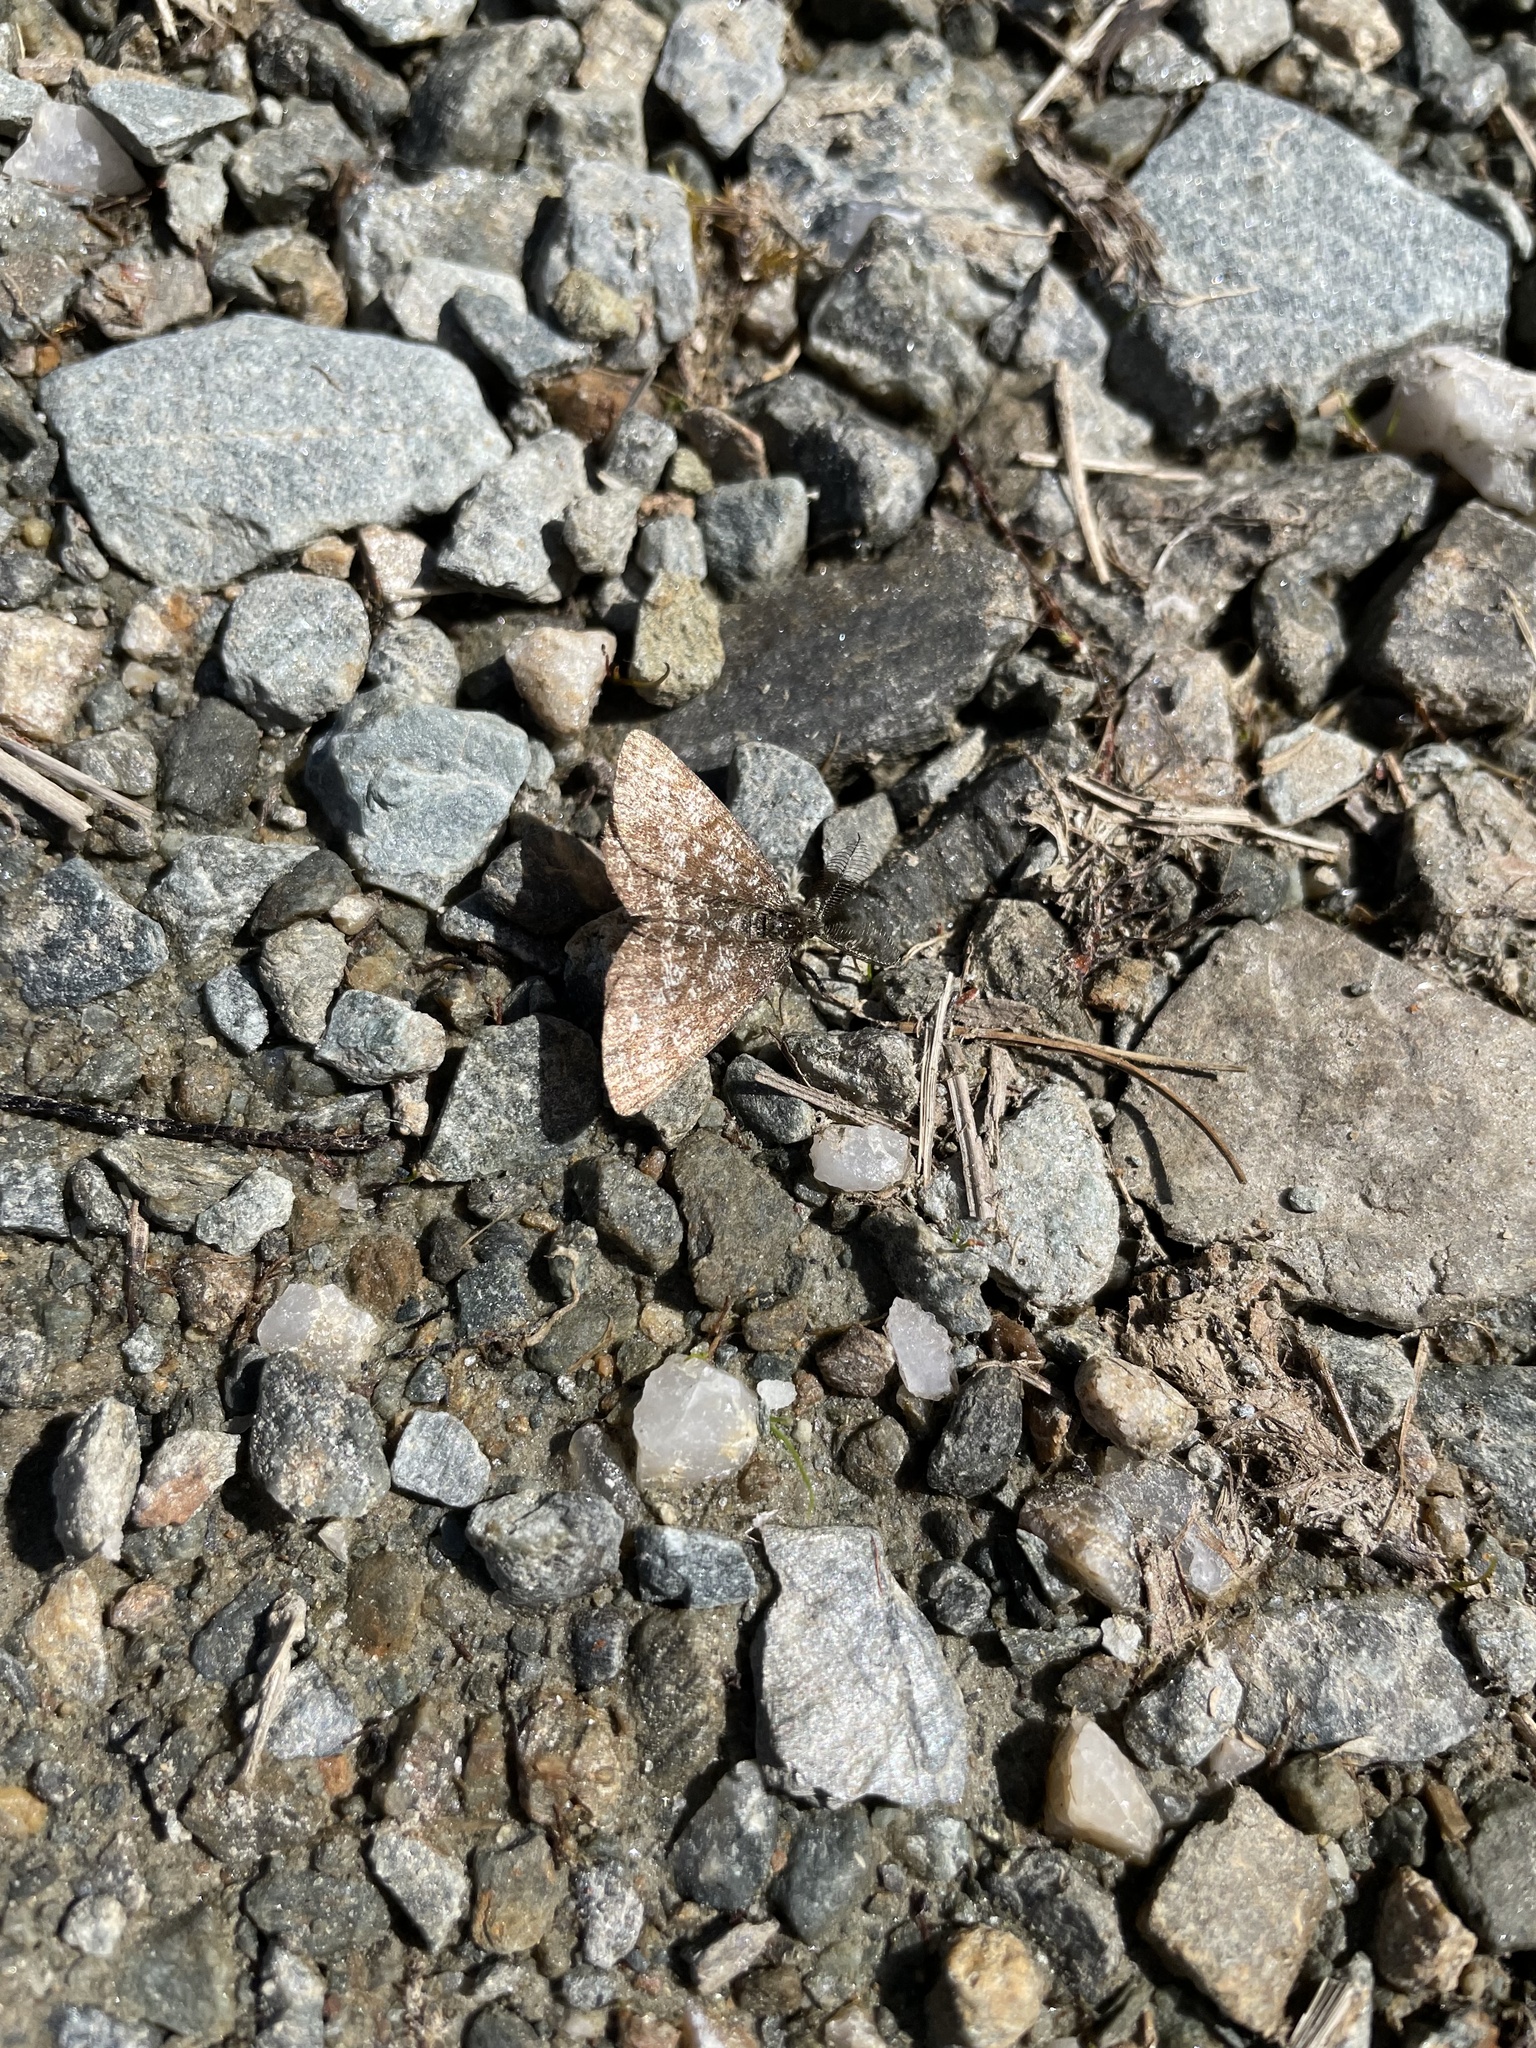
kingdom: Animalia
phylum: Arthropoda
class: Insecta
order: Lepidoptera
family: Geometridae
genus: Ematurga
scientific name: Ematurga atomaria
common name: Common heath
